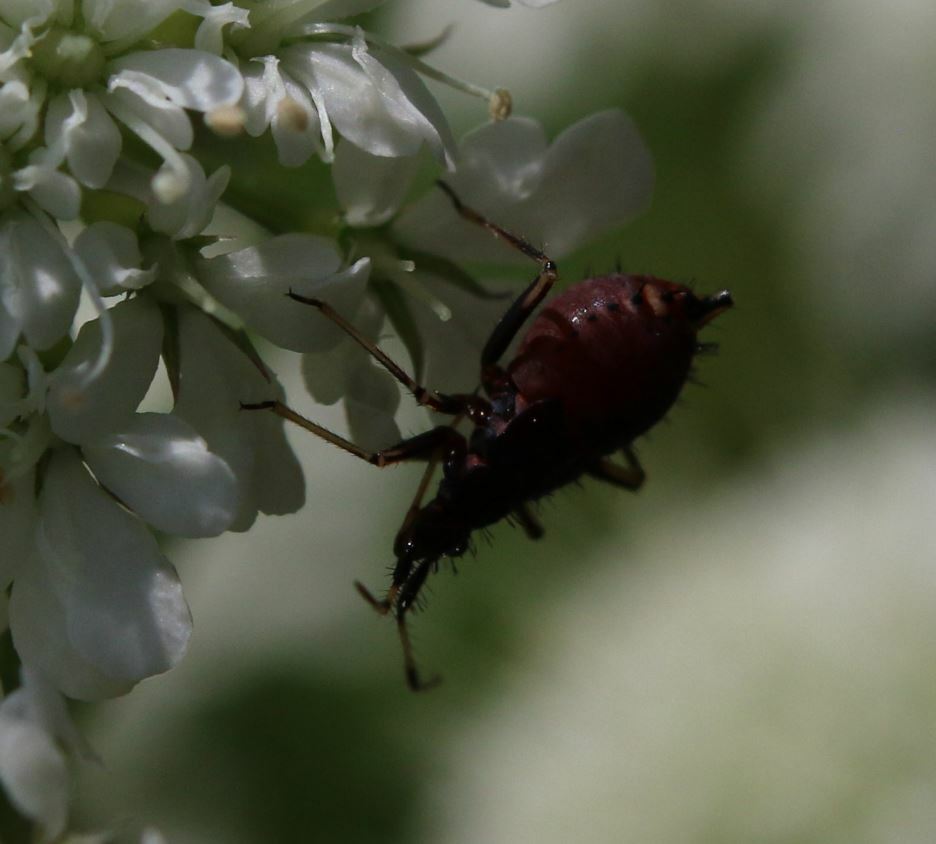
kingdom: Animalia
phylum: Arthropoda
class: Insecta
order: Hemiptera
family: Miridae
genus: Deraeocoris
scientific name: Deraeocoris ruber
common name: Plant bug
